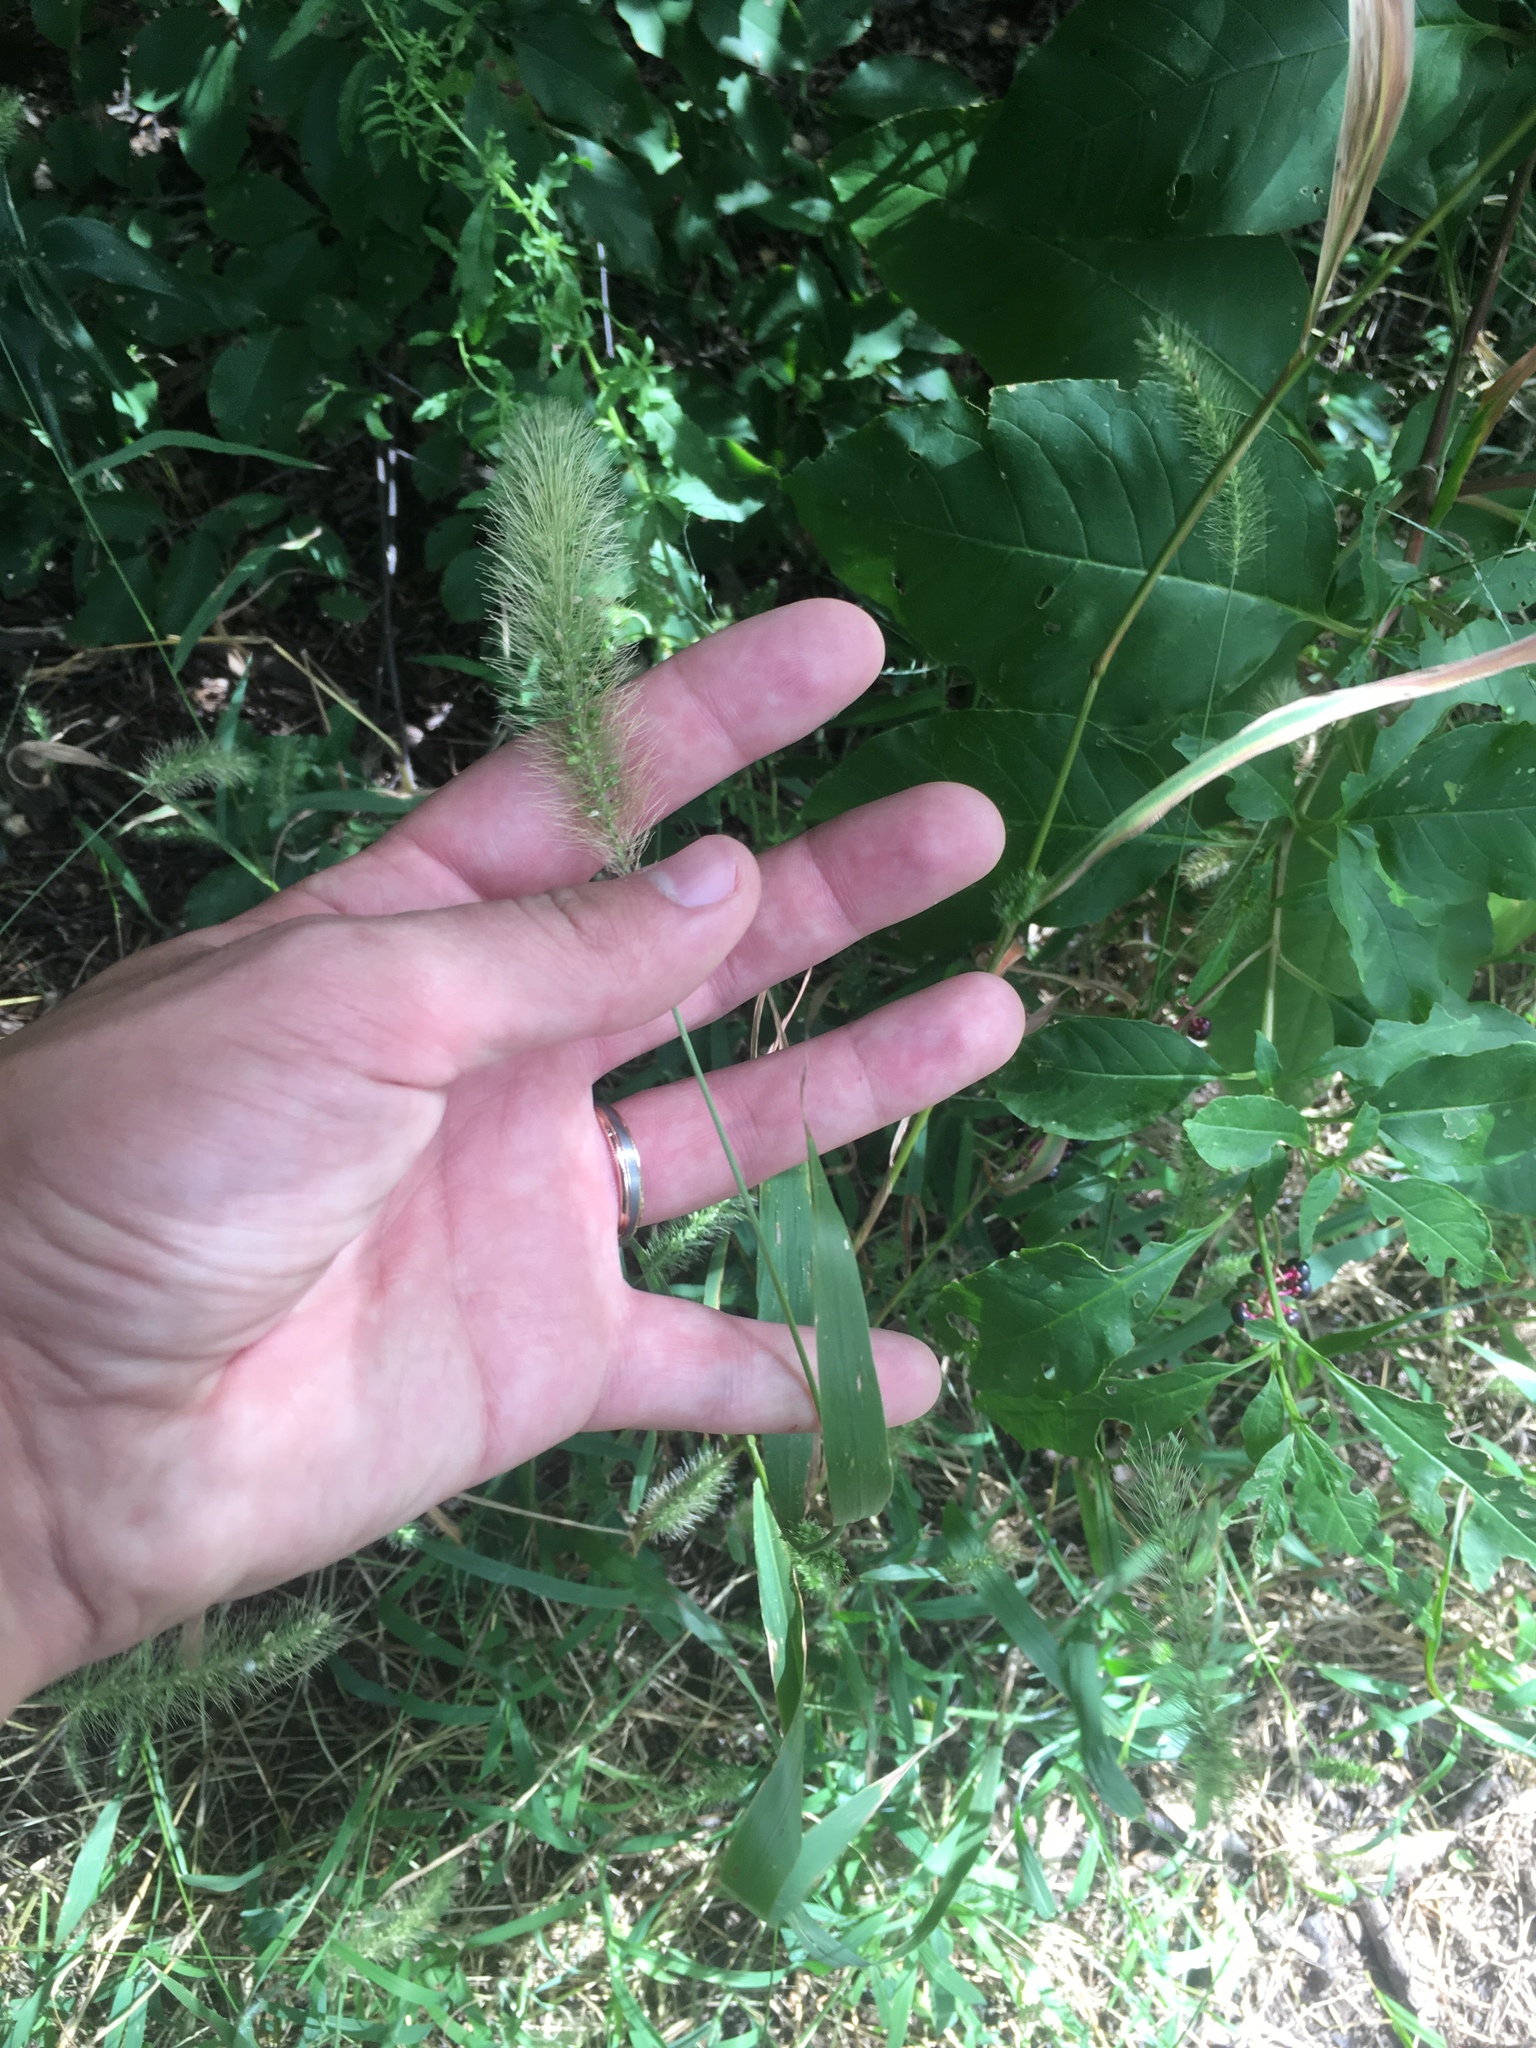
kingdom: Plantae
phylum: Tracheophyta
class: Liliopsida
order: Poales
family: Poaceae
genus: Setaria
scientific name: Setaria faberi
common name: Nodding bristle-grass
